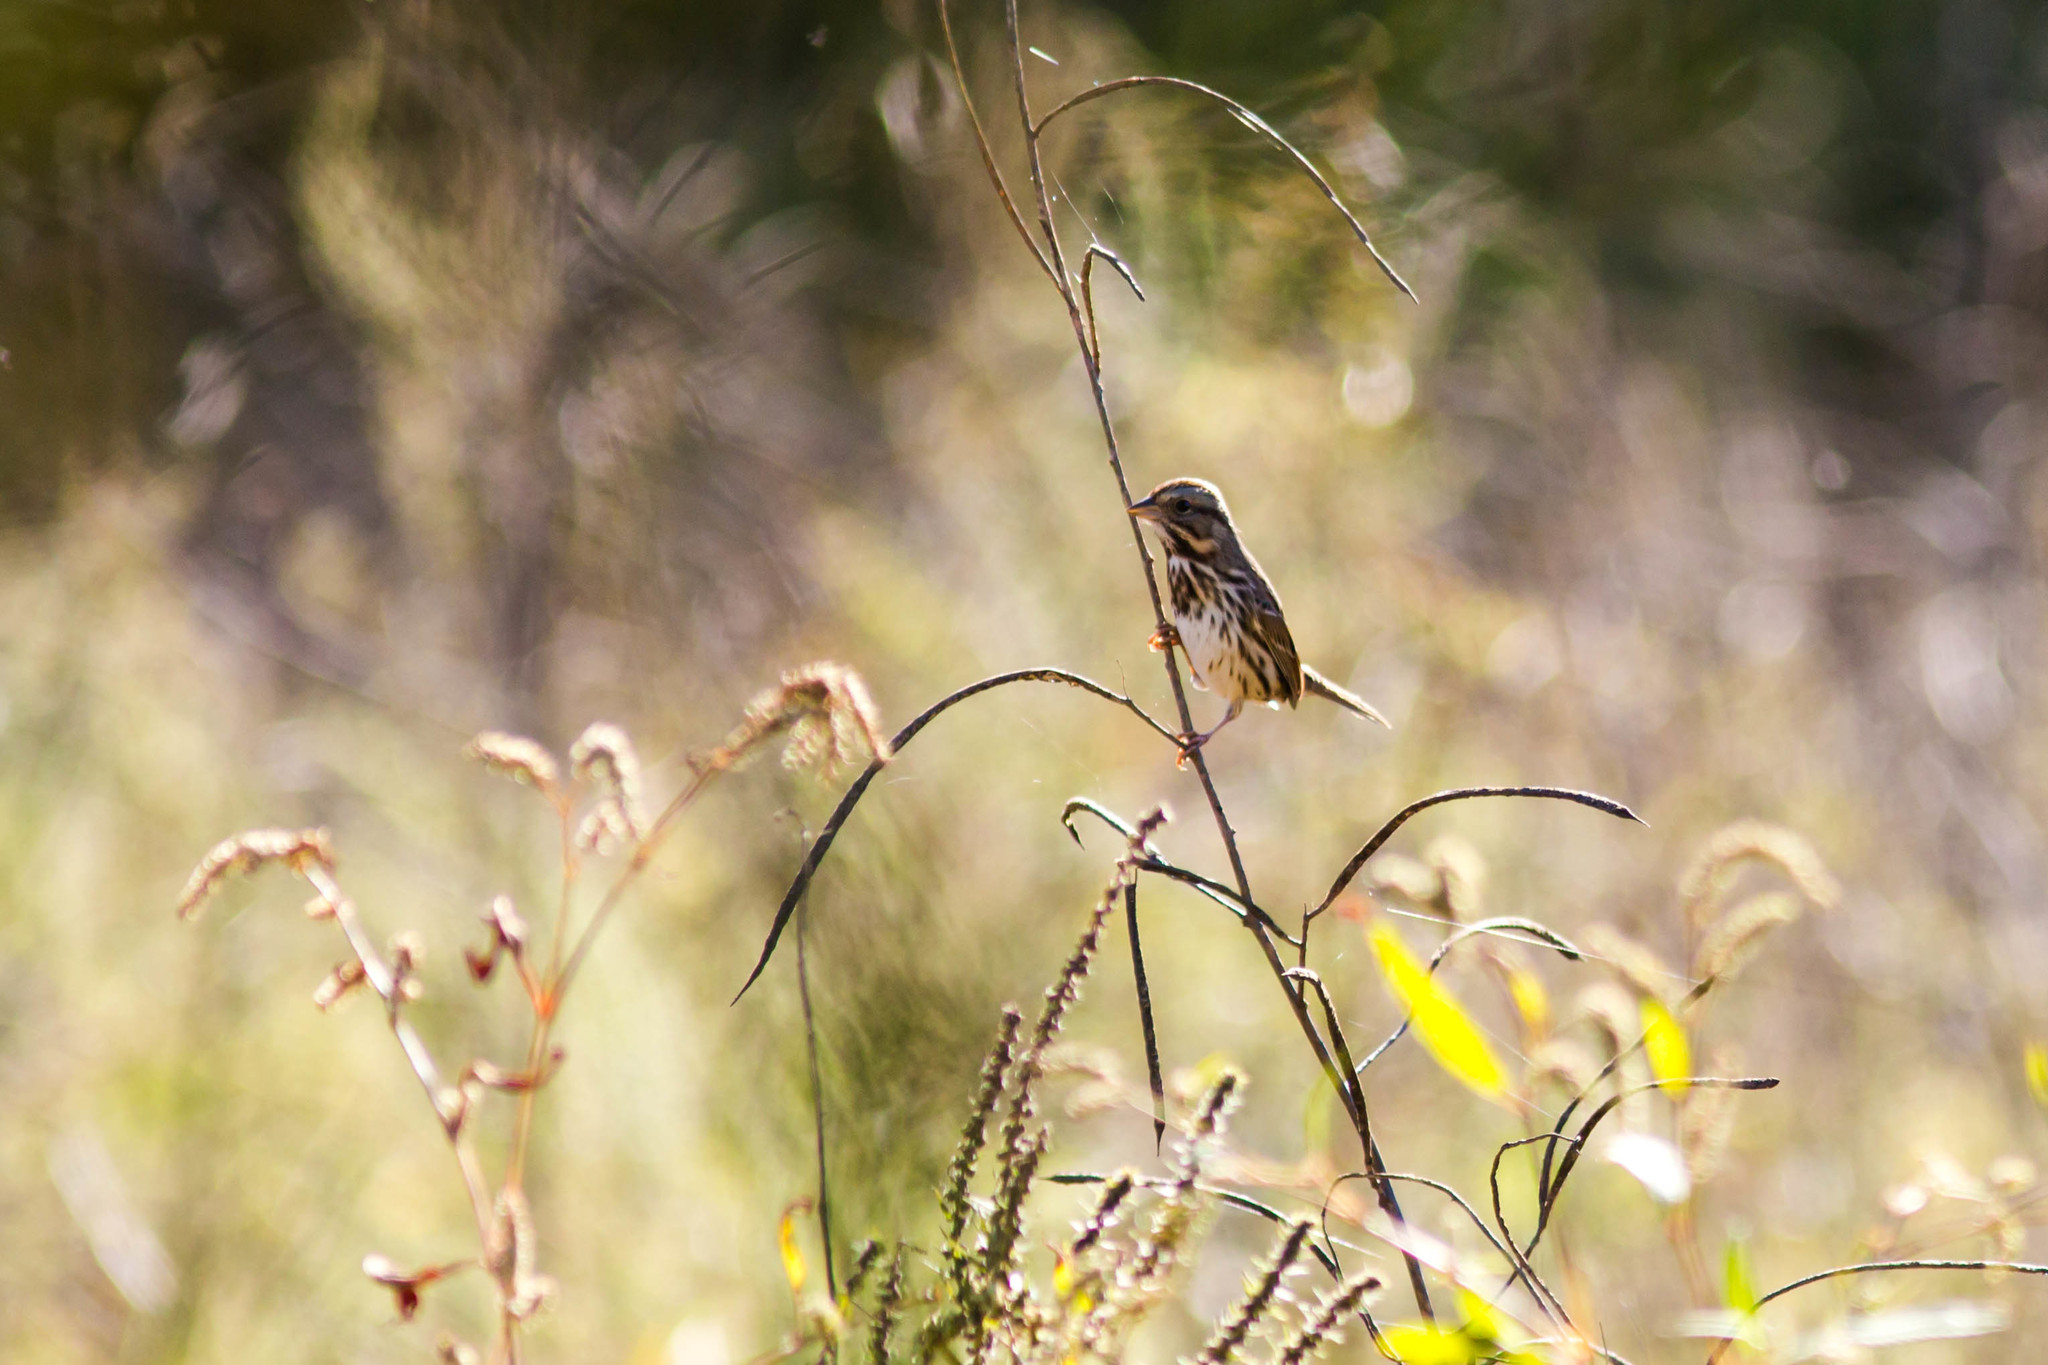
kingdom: Animalia
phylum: Chordata
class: Aves
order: Passeriformes
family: Passerellidae
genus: Melospiza
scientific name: Melospiza melodia
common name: Song sparrow
